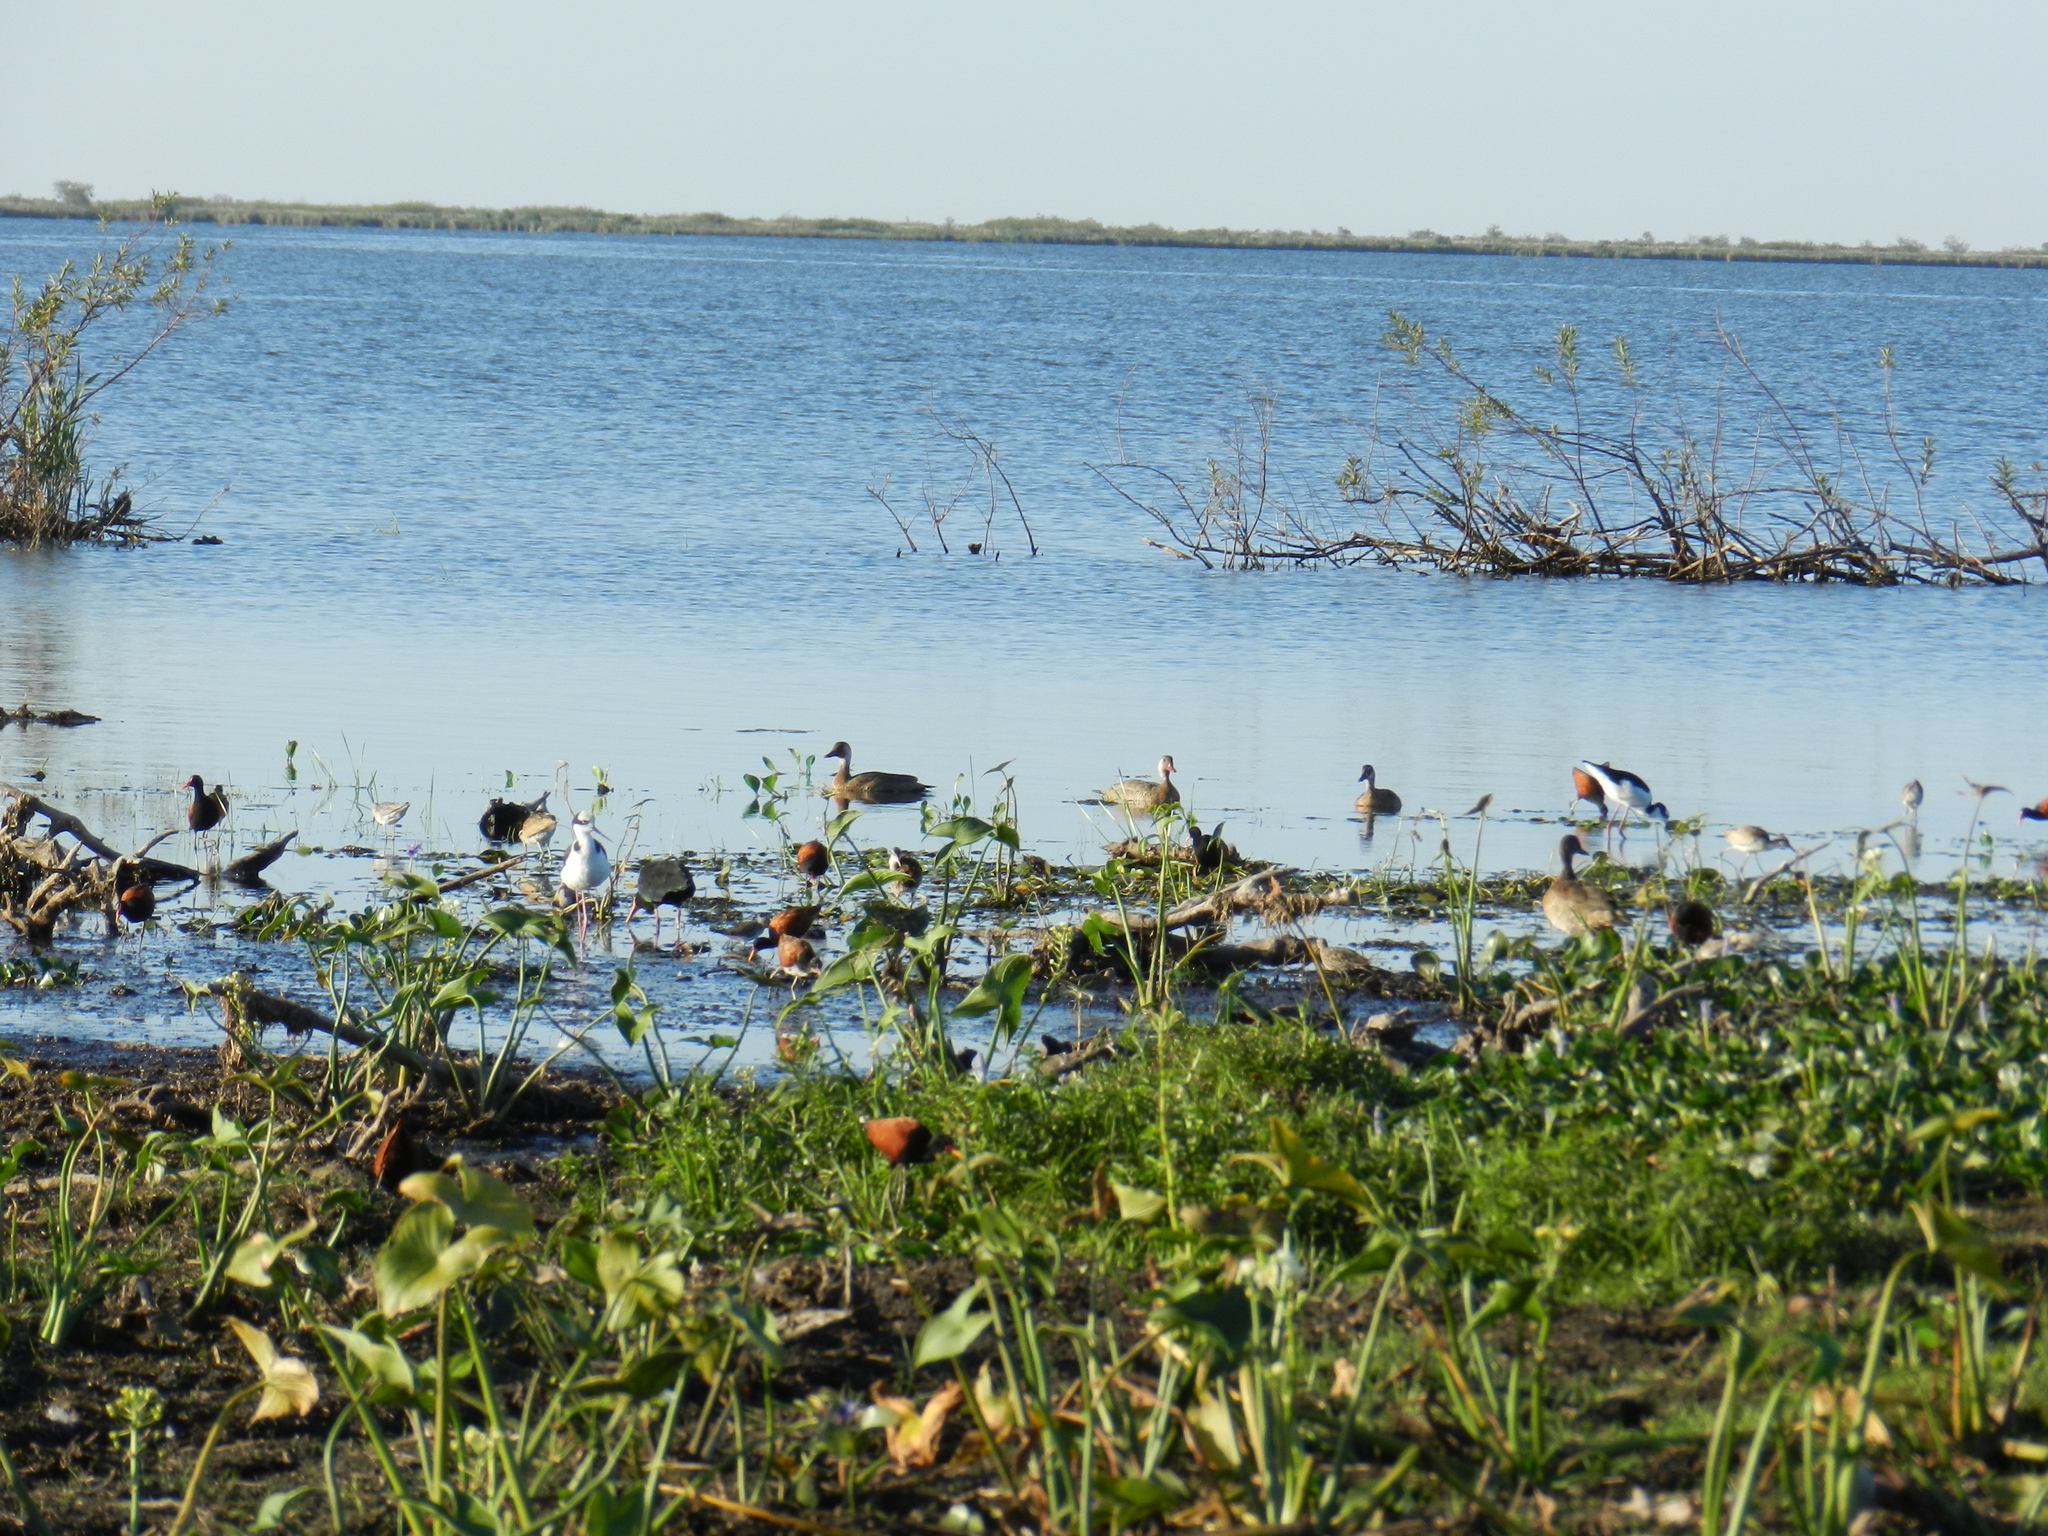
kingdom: Animalia
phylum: Chordata
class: Aves
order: Charadriiformes
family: Recurvirostridae
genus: Himantopus
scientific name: Himantopus mexicanus
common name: Black-necked stilt
